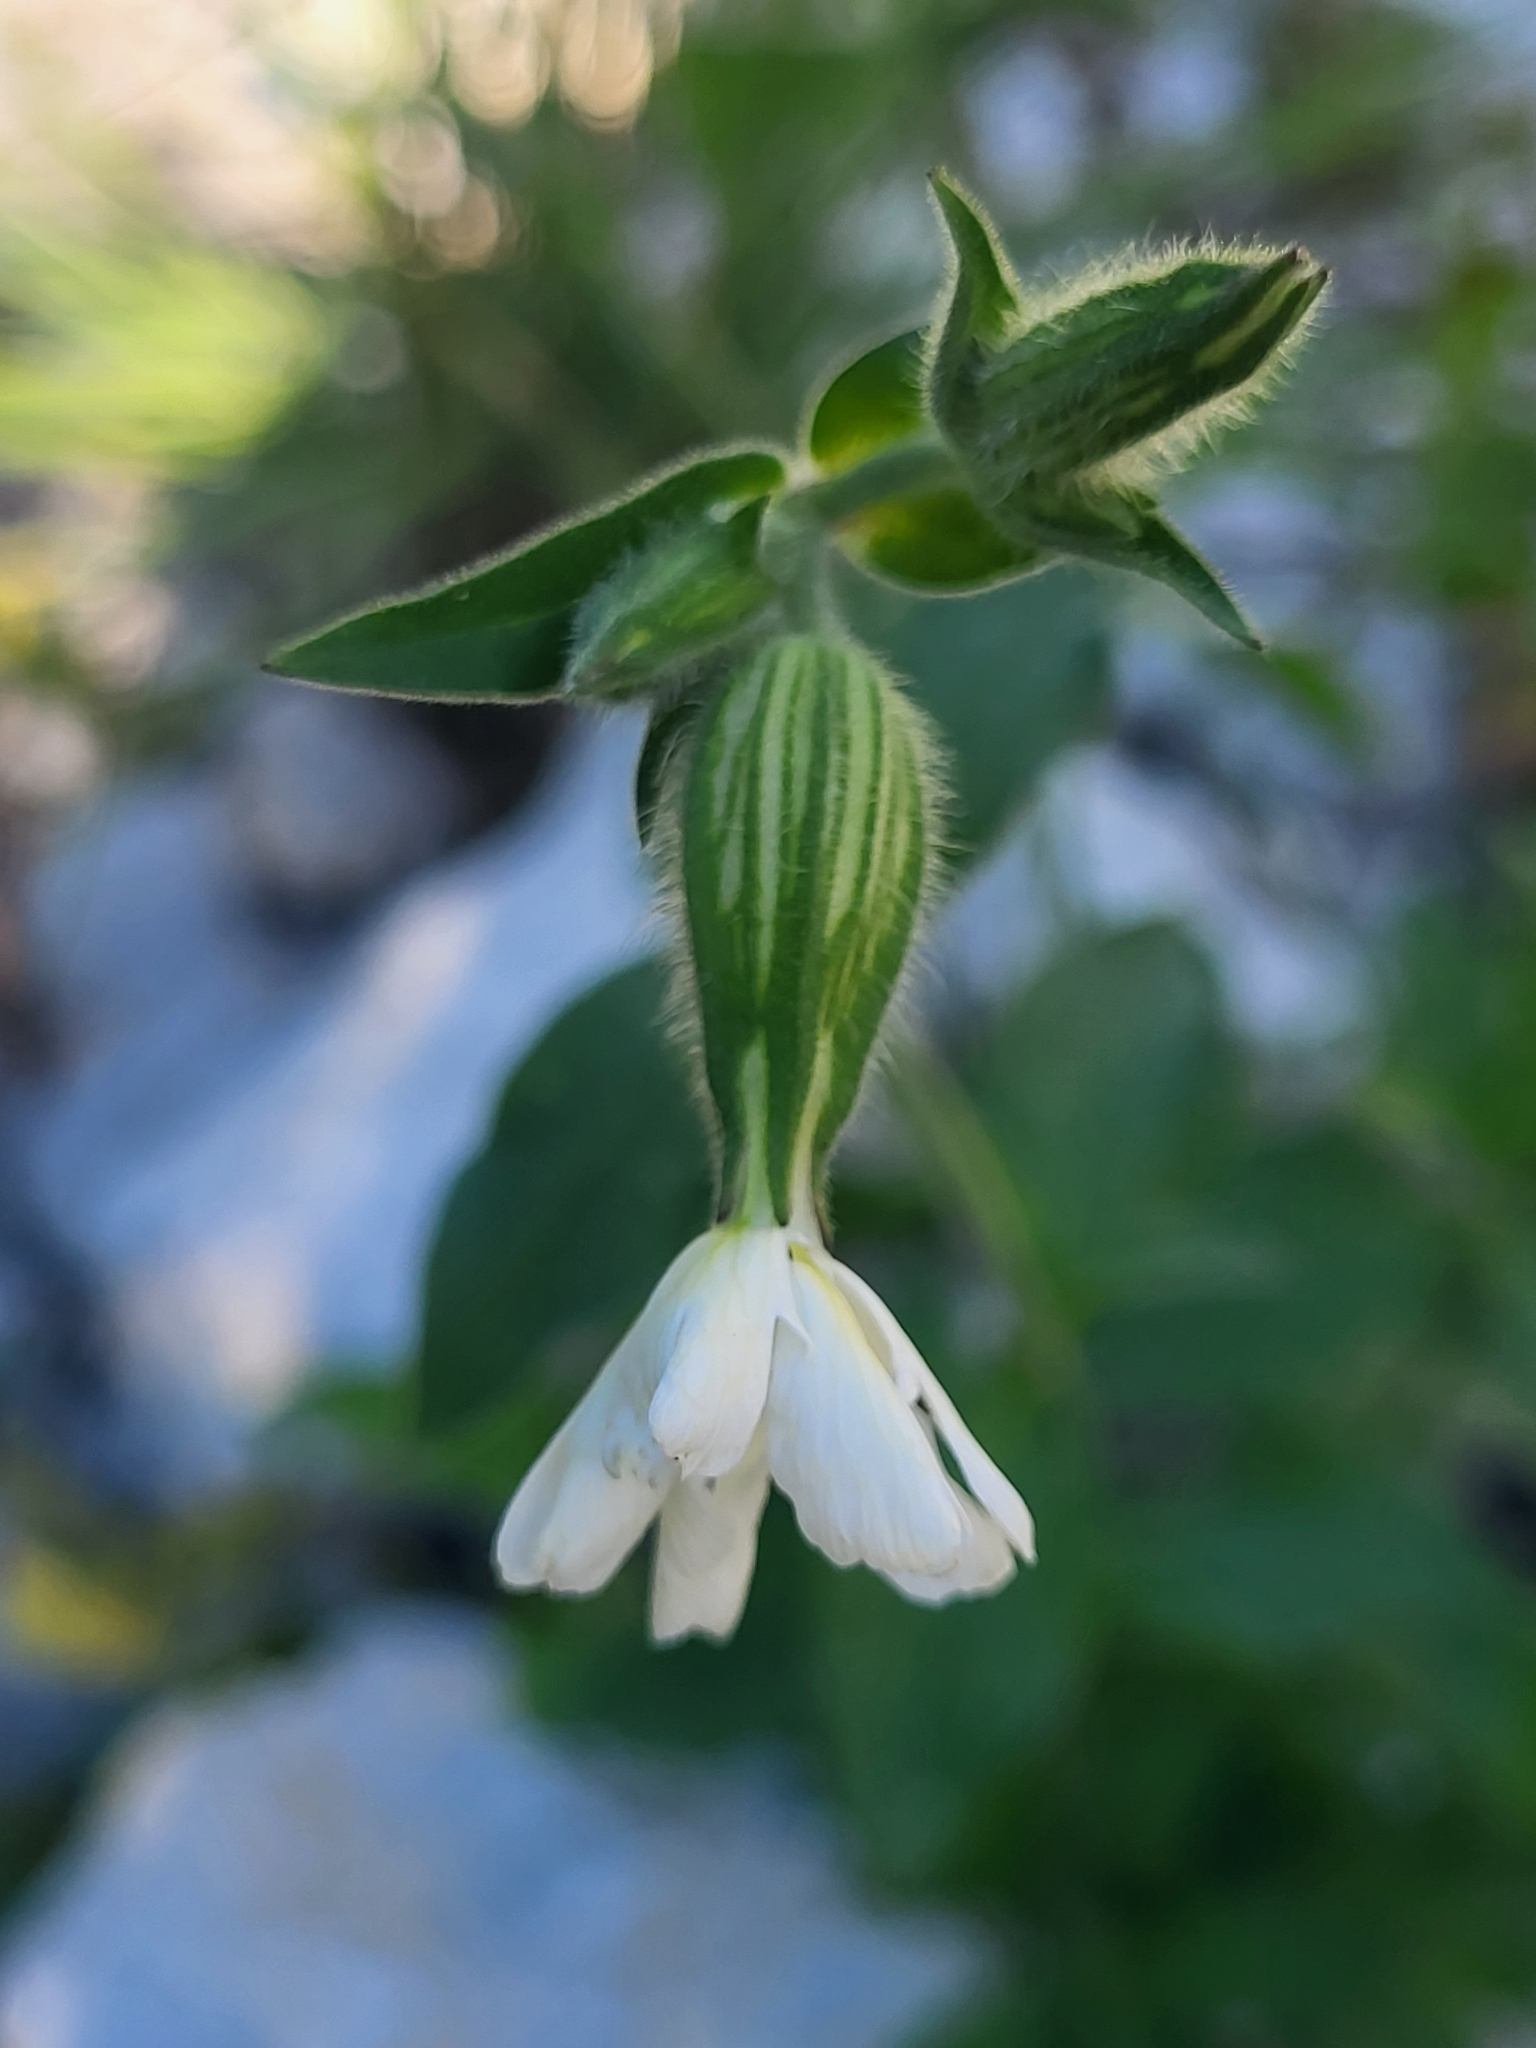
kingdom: Plantae
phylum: Tracheophyta
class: Magnoliopsida
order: Caryophyllales
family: Caryophyllaceae
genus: Silene
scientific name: Silene latifolia
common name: White campion
